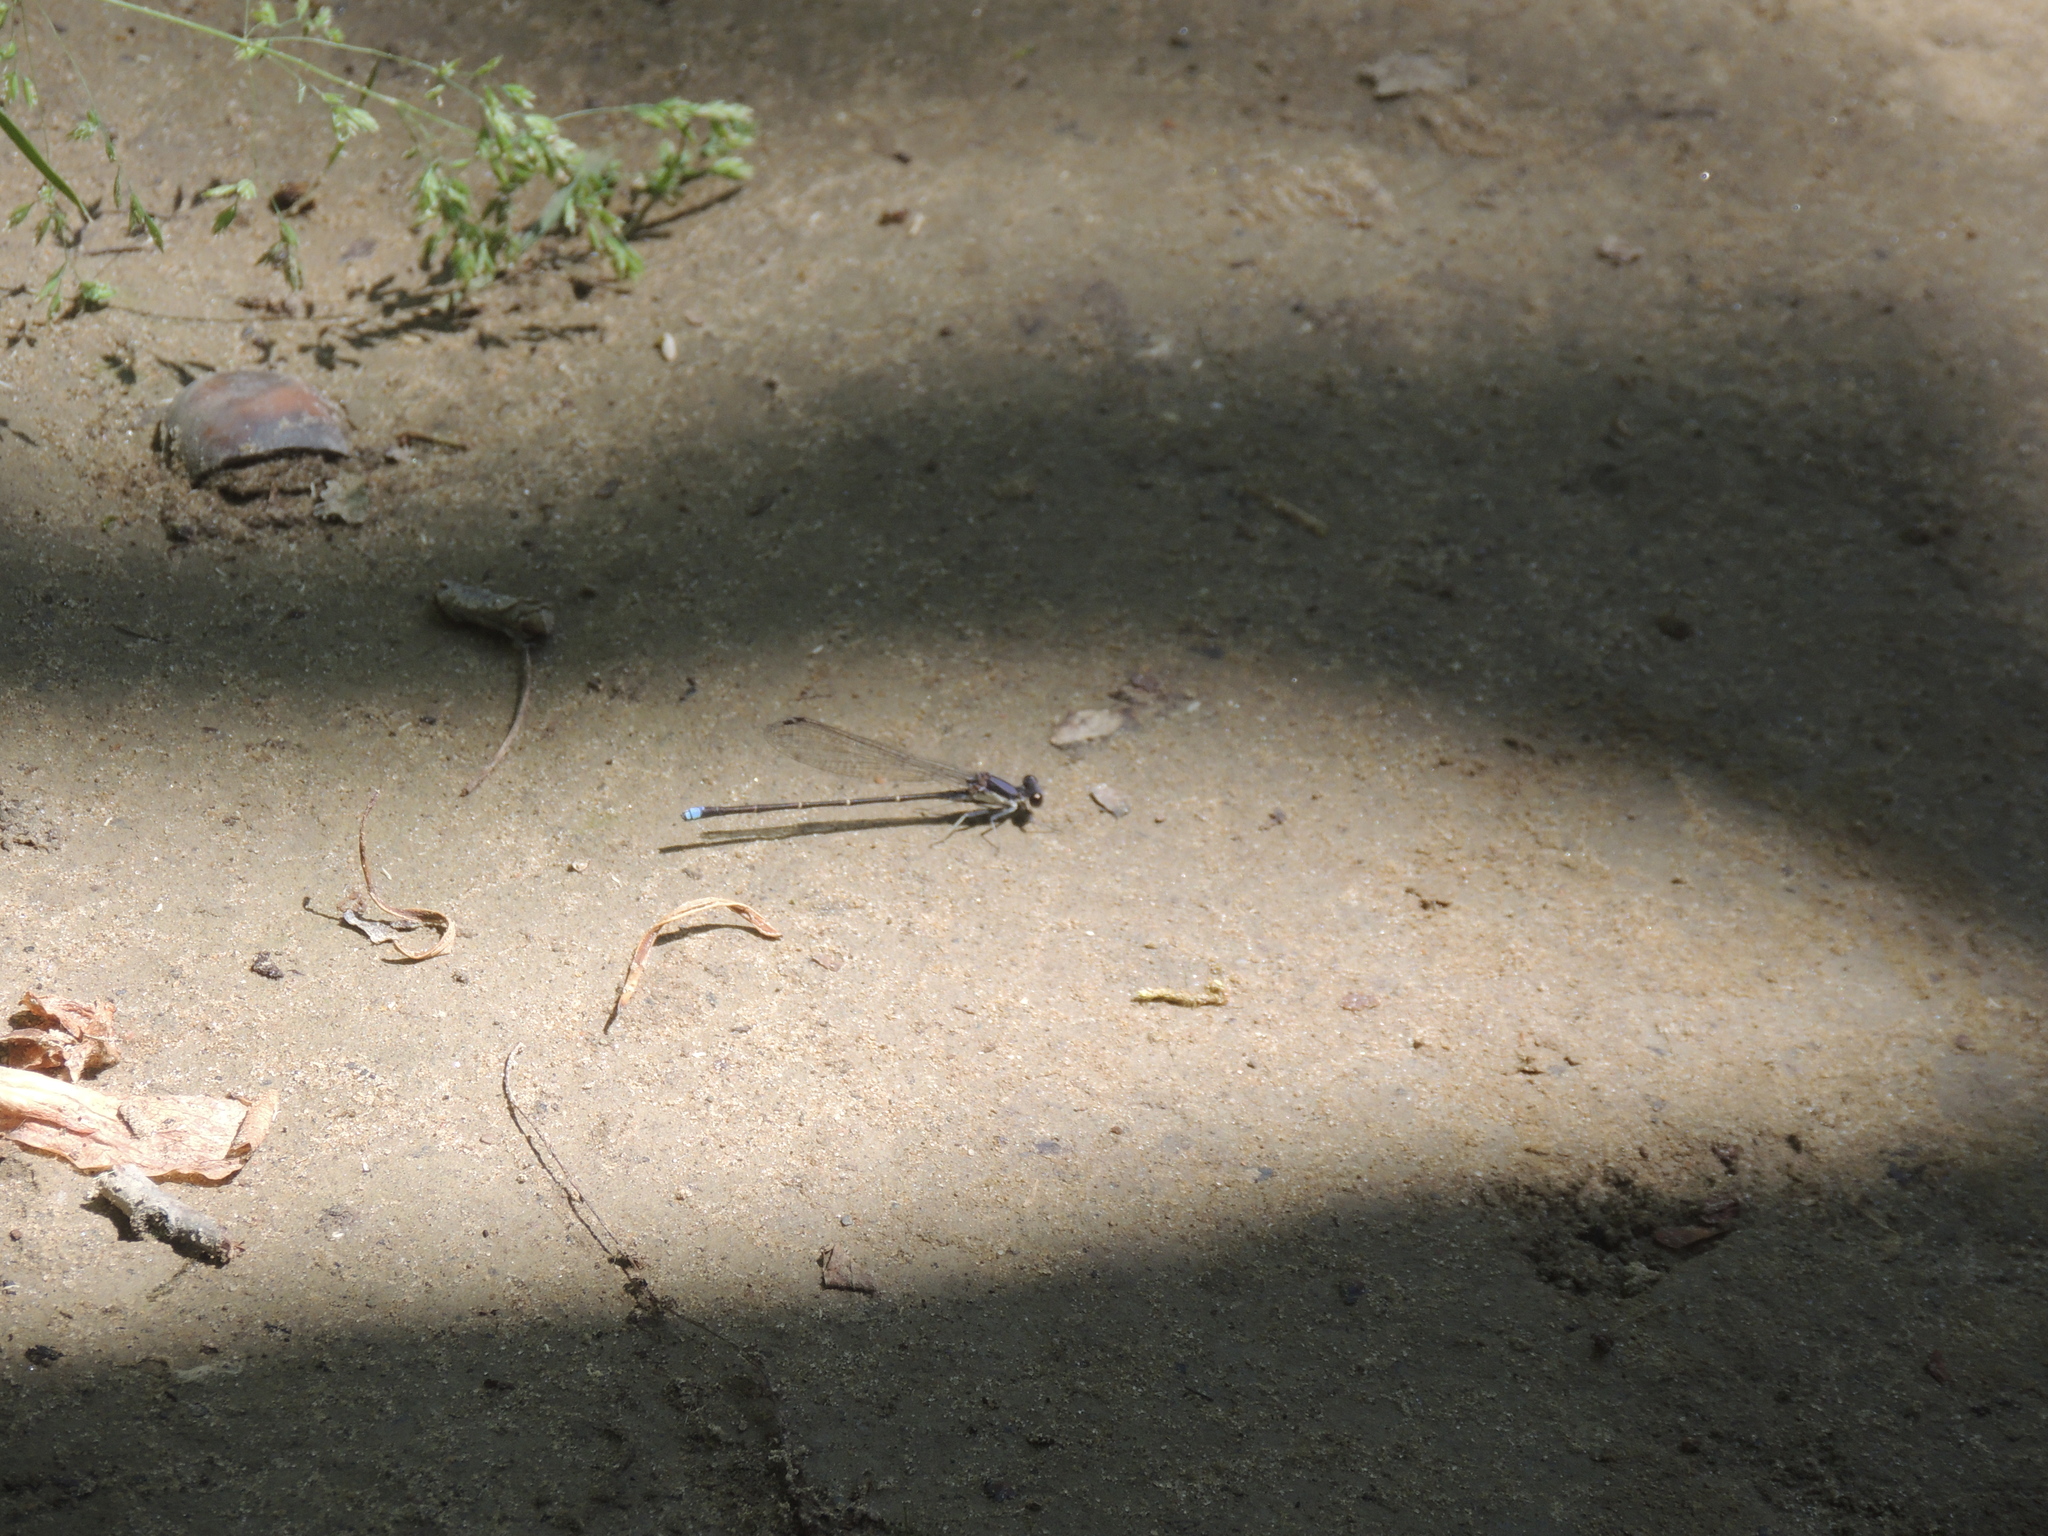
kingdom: Animalia
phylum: Arthropoda
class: Insecta
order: Odonata
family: Coenagrionidae
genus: Argia
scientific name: Argia tibialis
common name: Blue-tipped dancer
